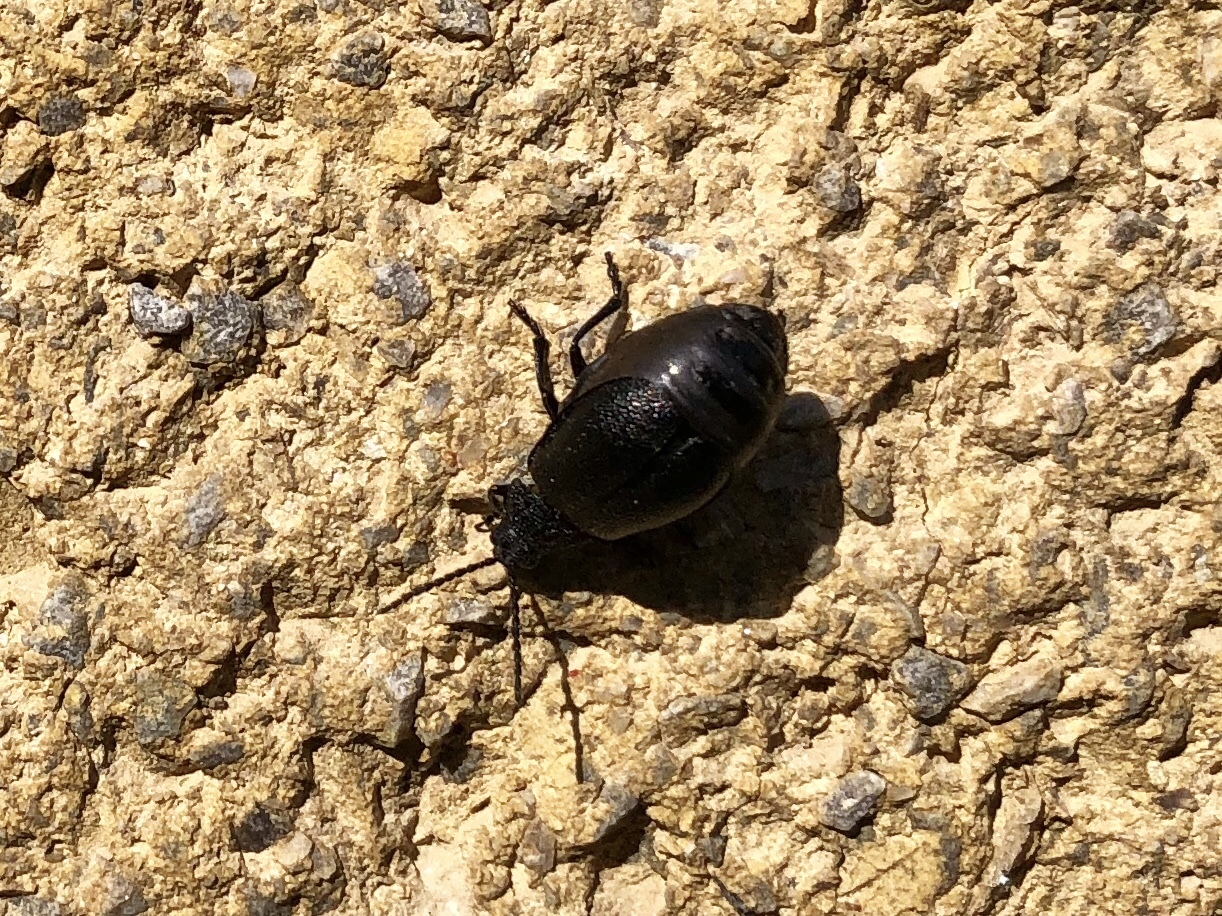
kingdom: Animalia
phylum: Arthropoda
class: Insecta
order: Coleoptera
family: Chrysomelidae
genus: Galeruca
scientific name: Galeruca tanaceti
